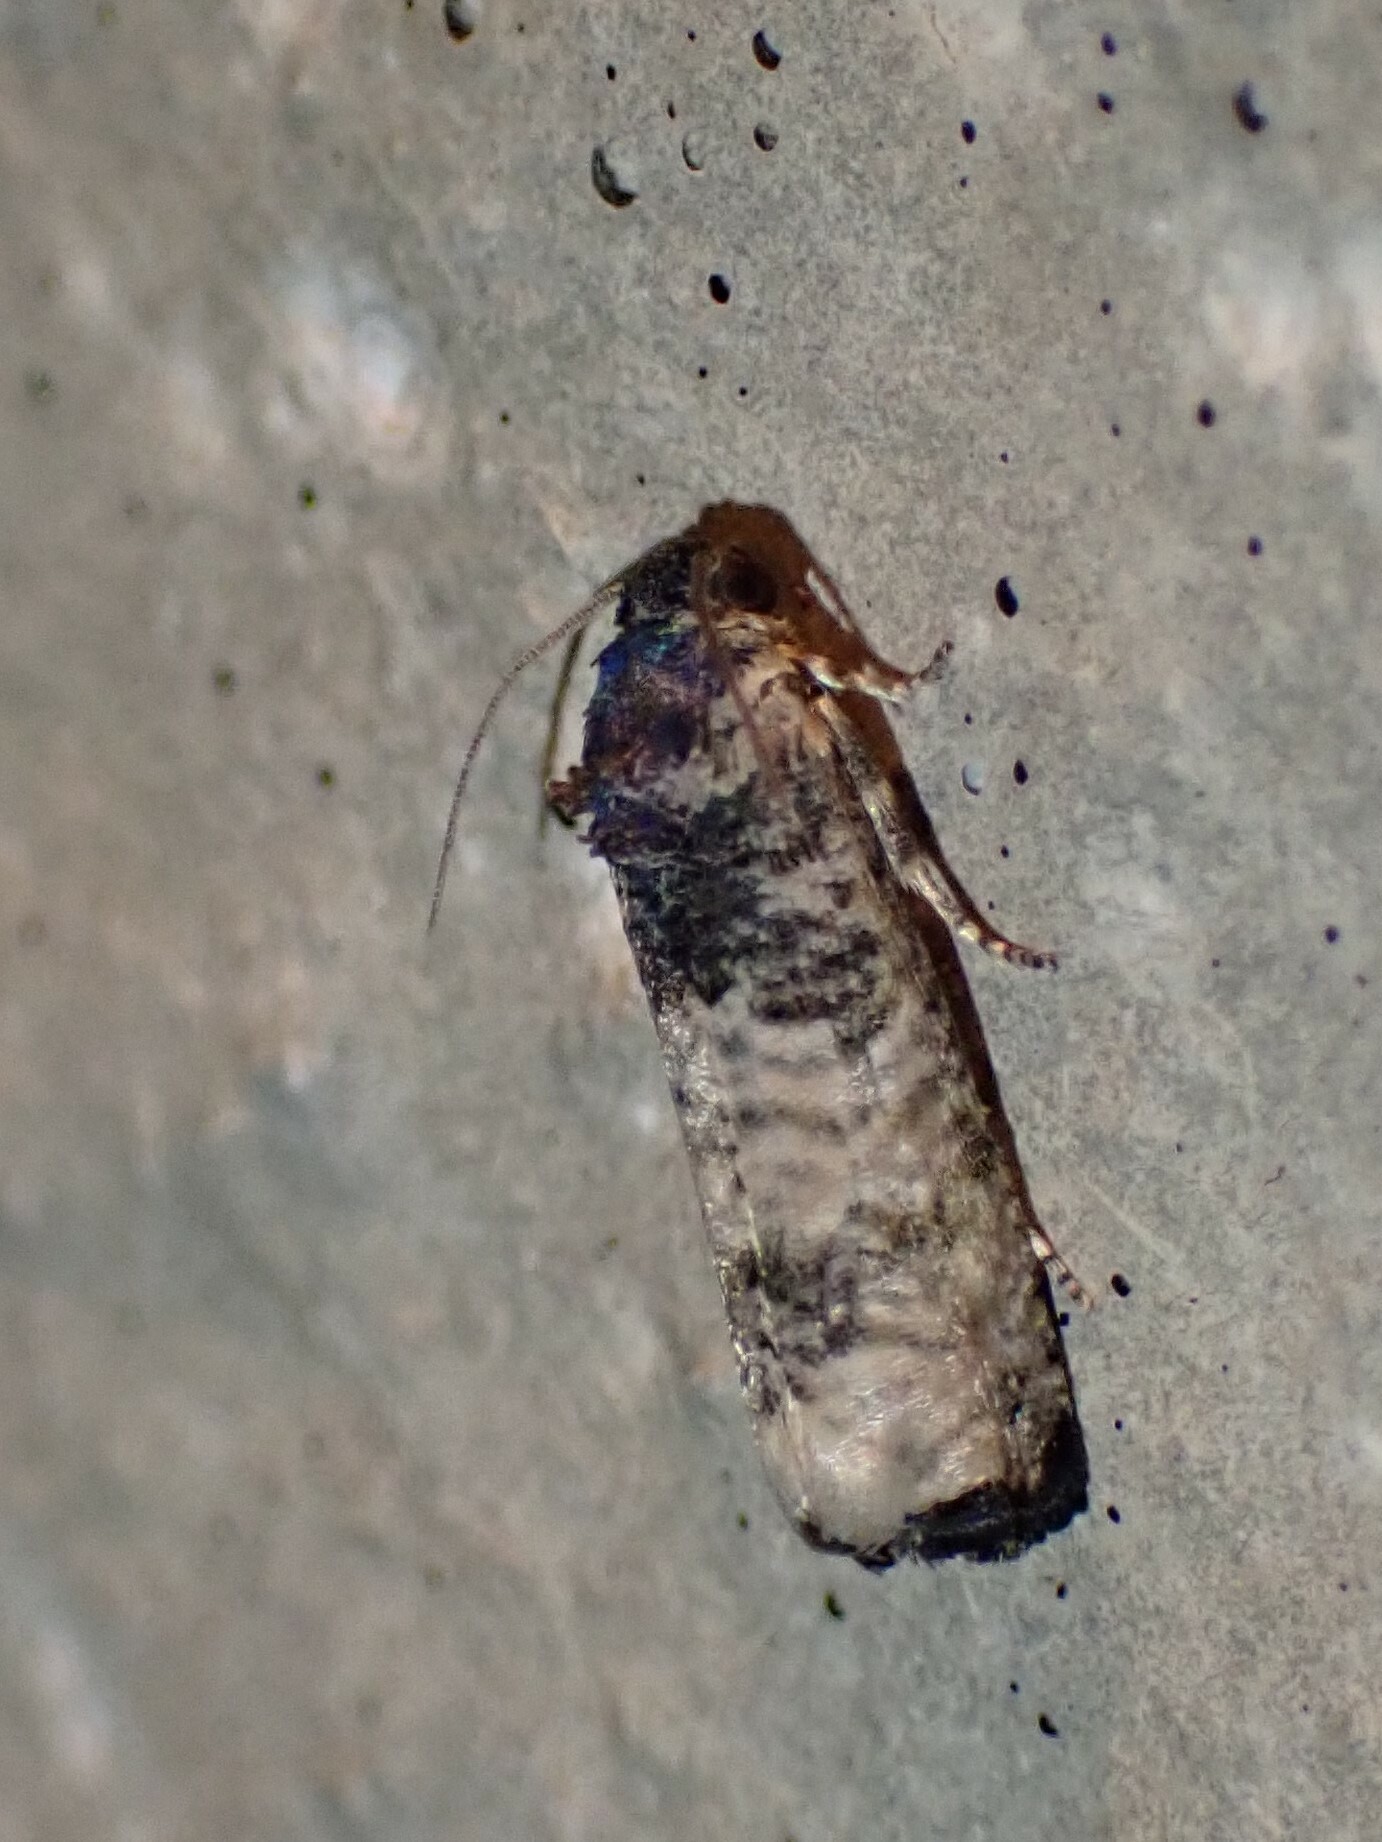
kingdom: Animalia
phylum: Arthropoda
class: Insecta
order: Lepidoptera
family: Tortricidae
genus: Epiblema
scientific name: Epiblema obfuscana
